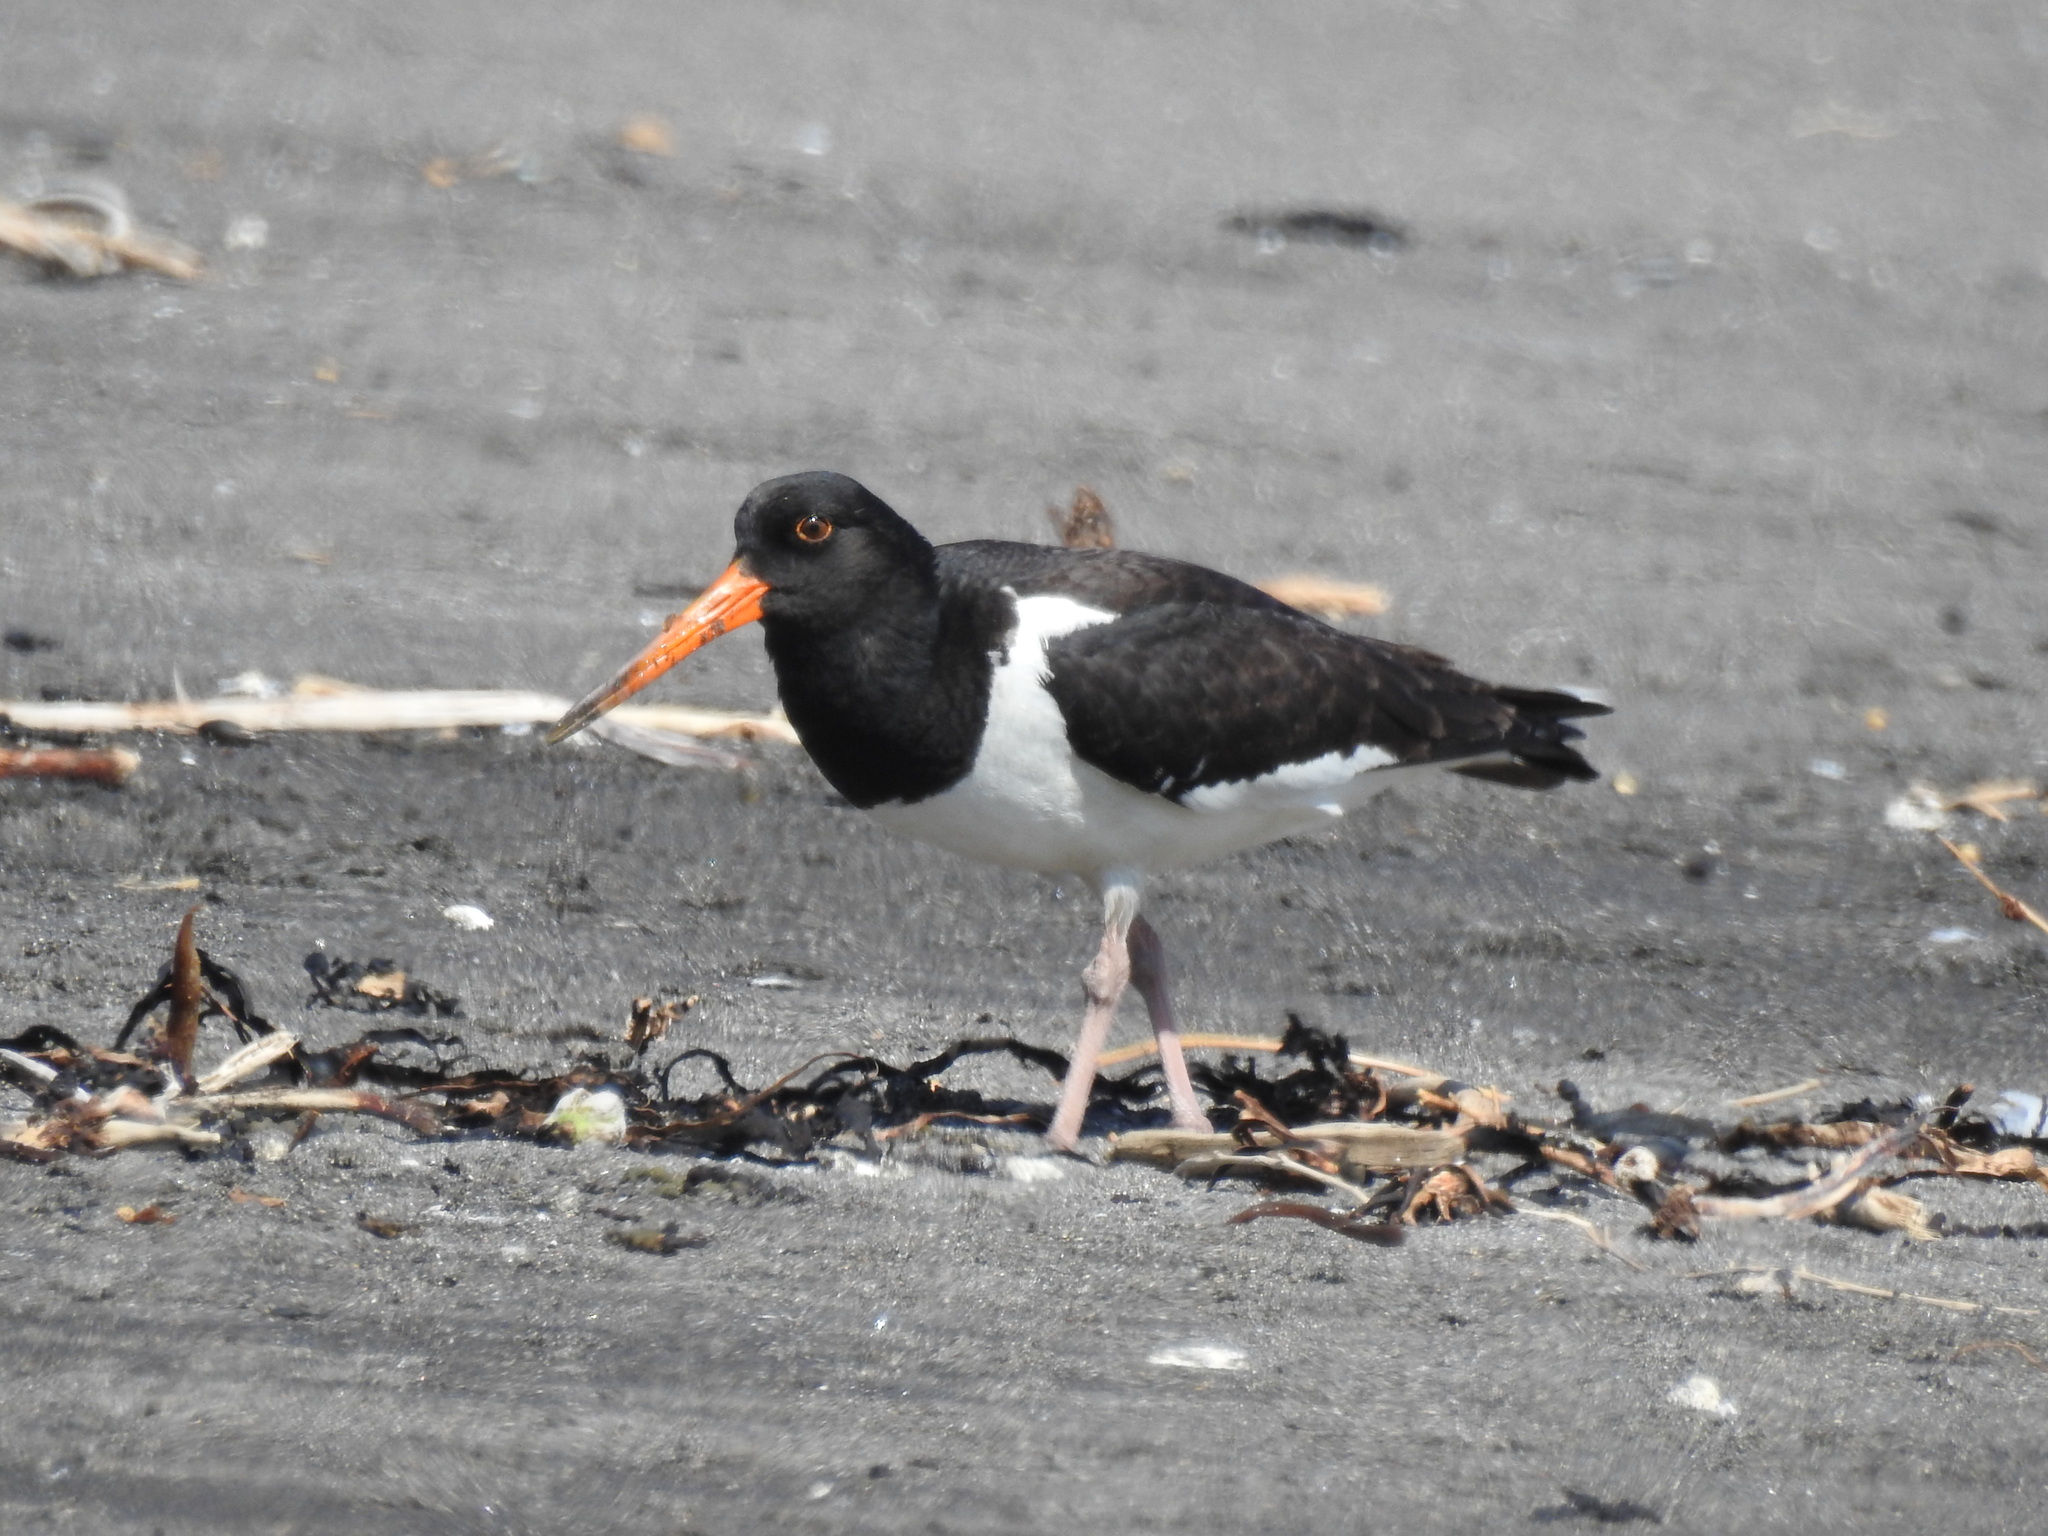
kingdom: Animalia
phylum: Chordata
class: Aves
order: Charadriiformes
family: Haematopodidae
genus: Haematopus
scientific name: Haematopus finschi
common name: South island oystercatcher
